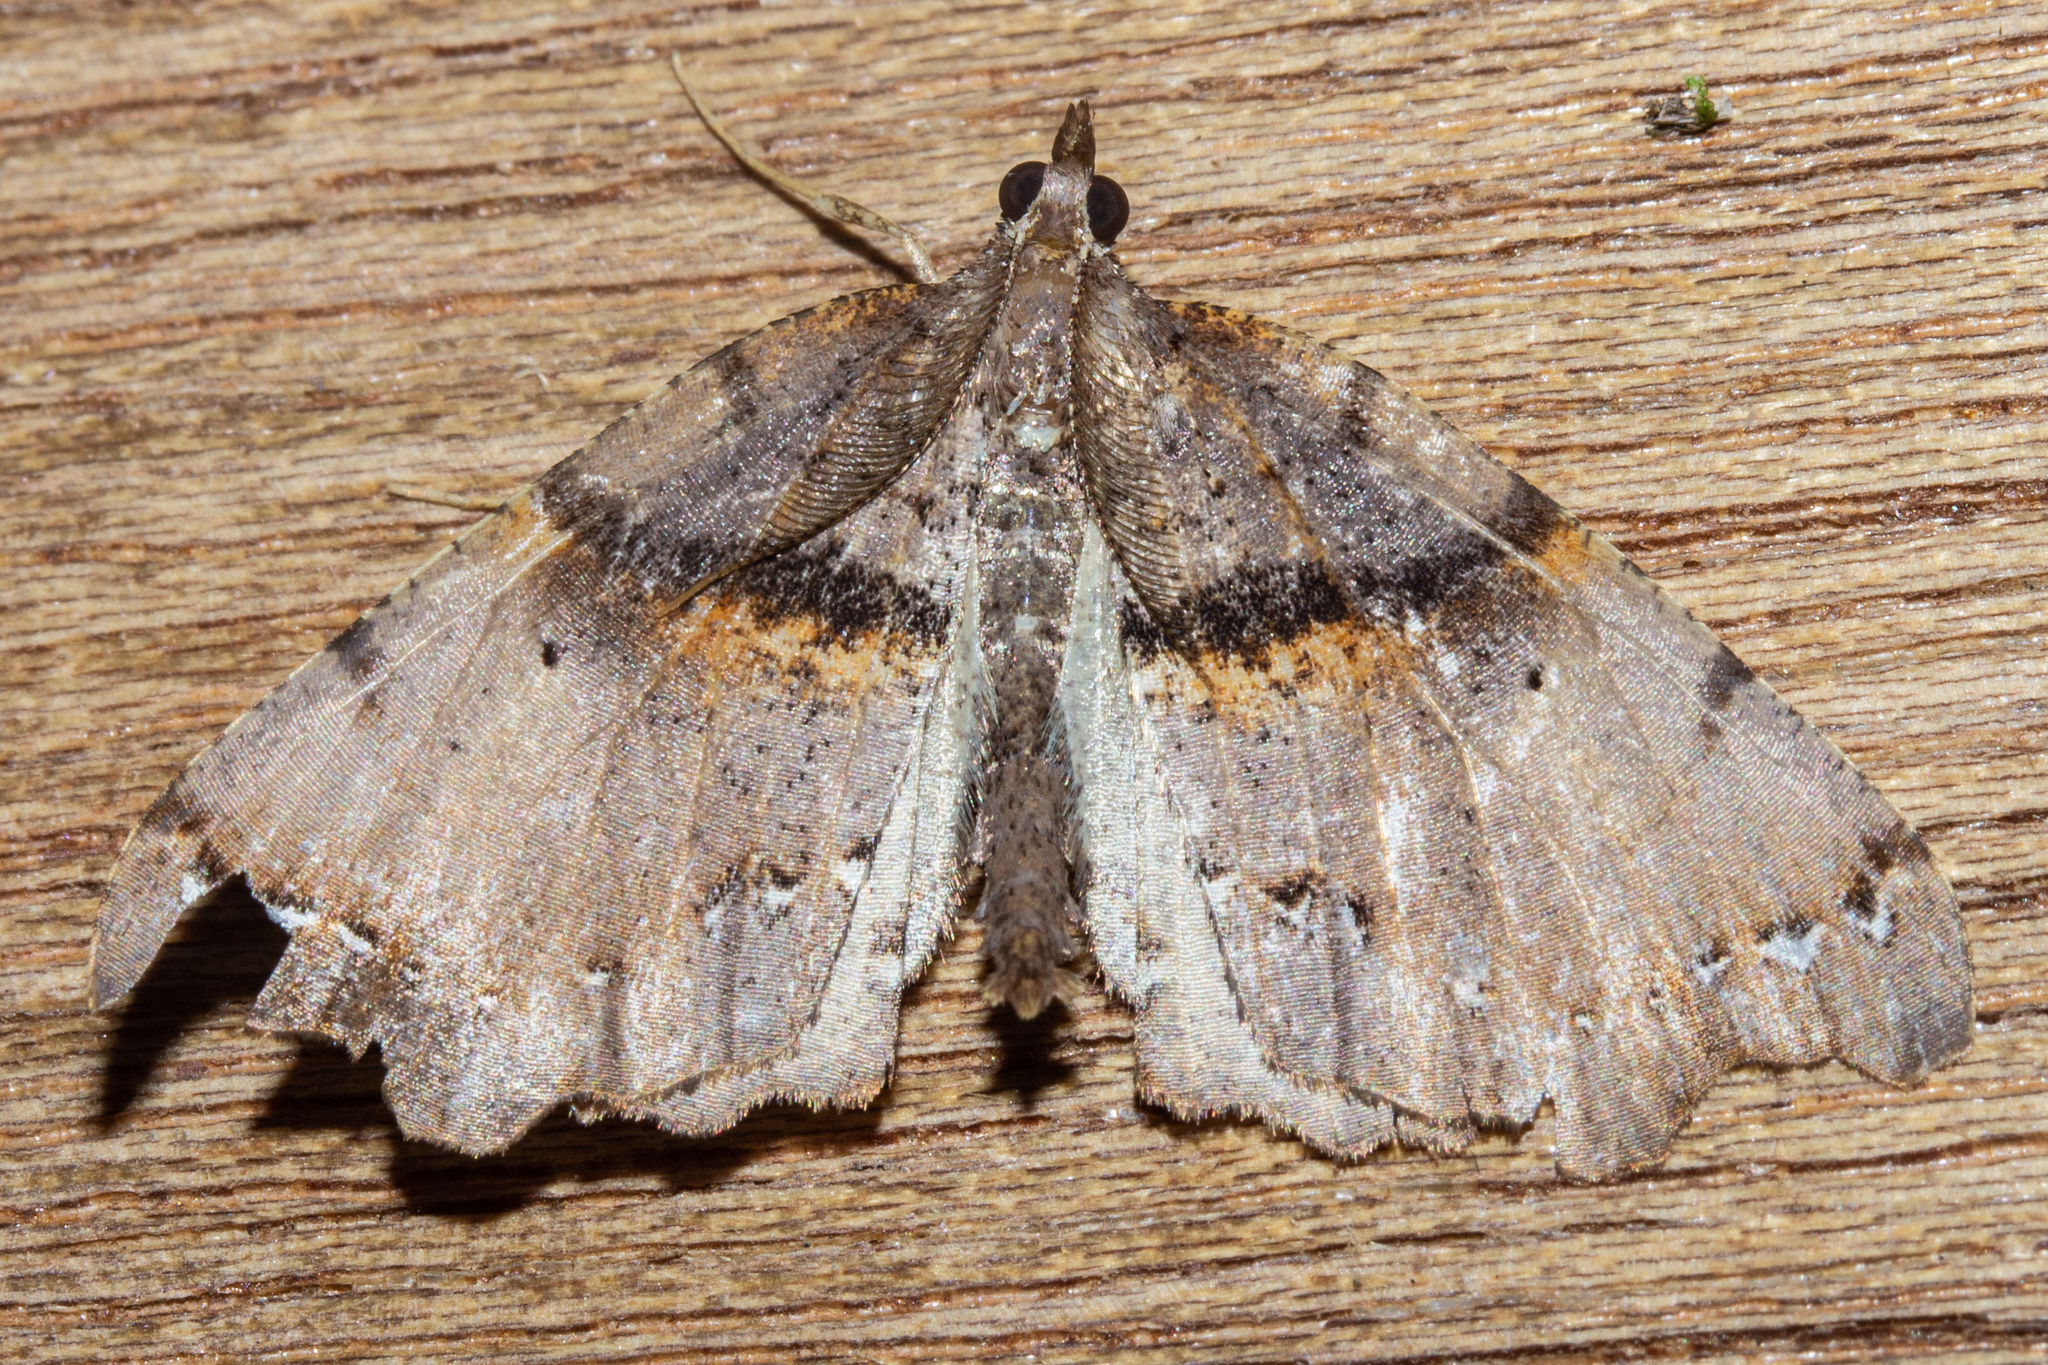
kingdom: Animalia
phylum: Arthropoda
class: Insecta
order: Lepidoptera
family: Geometridae
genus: Chalastra
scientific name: Chalastra pellurgata
